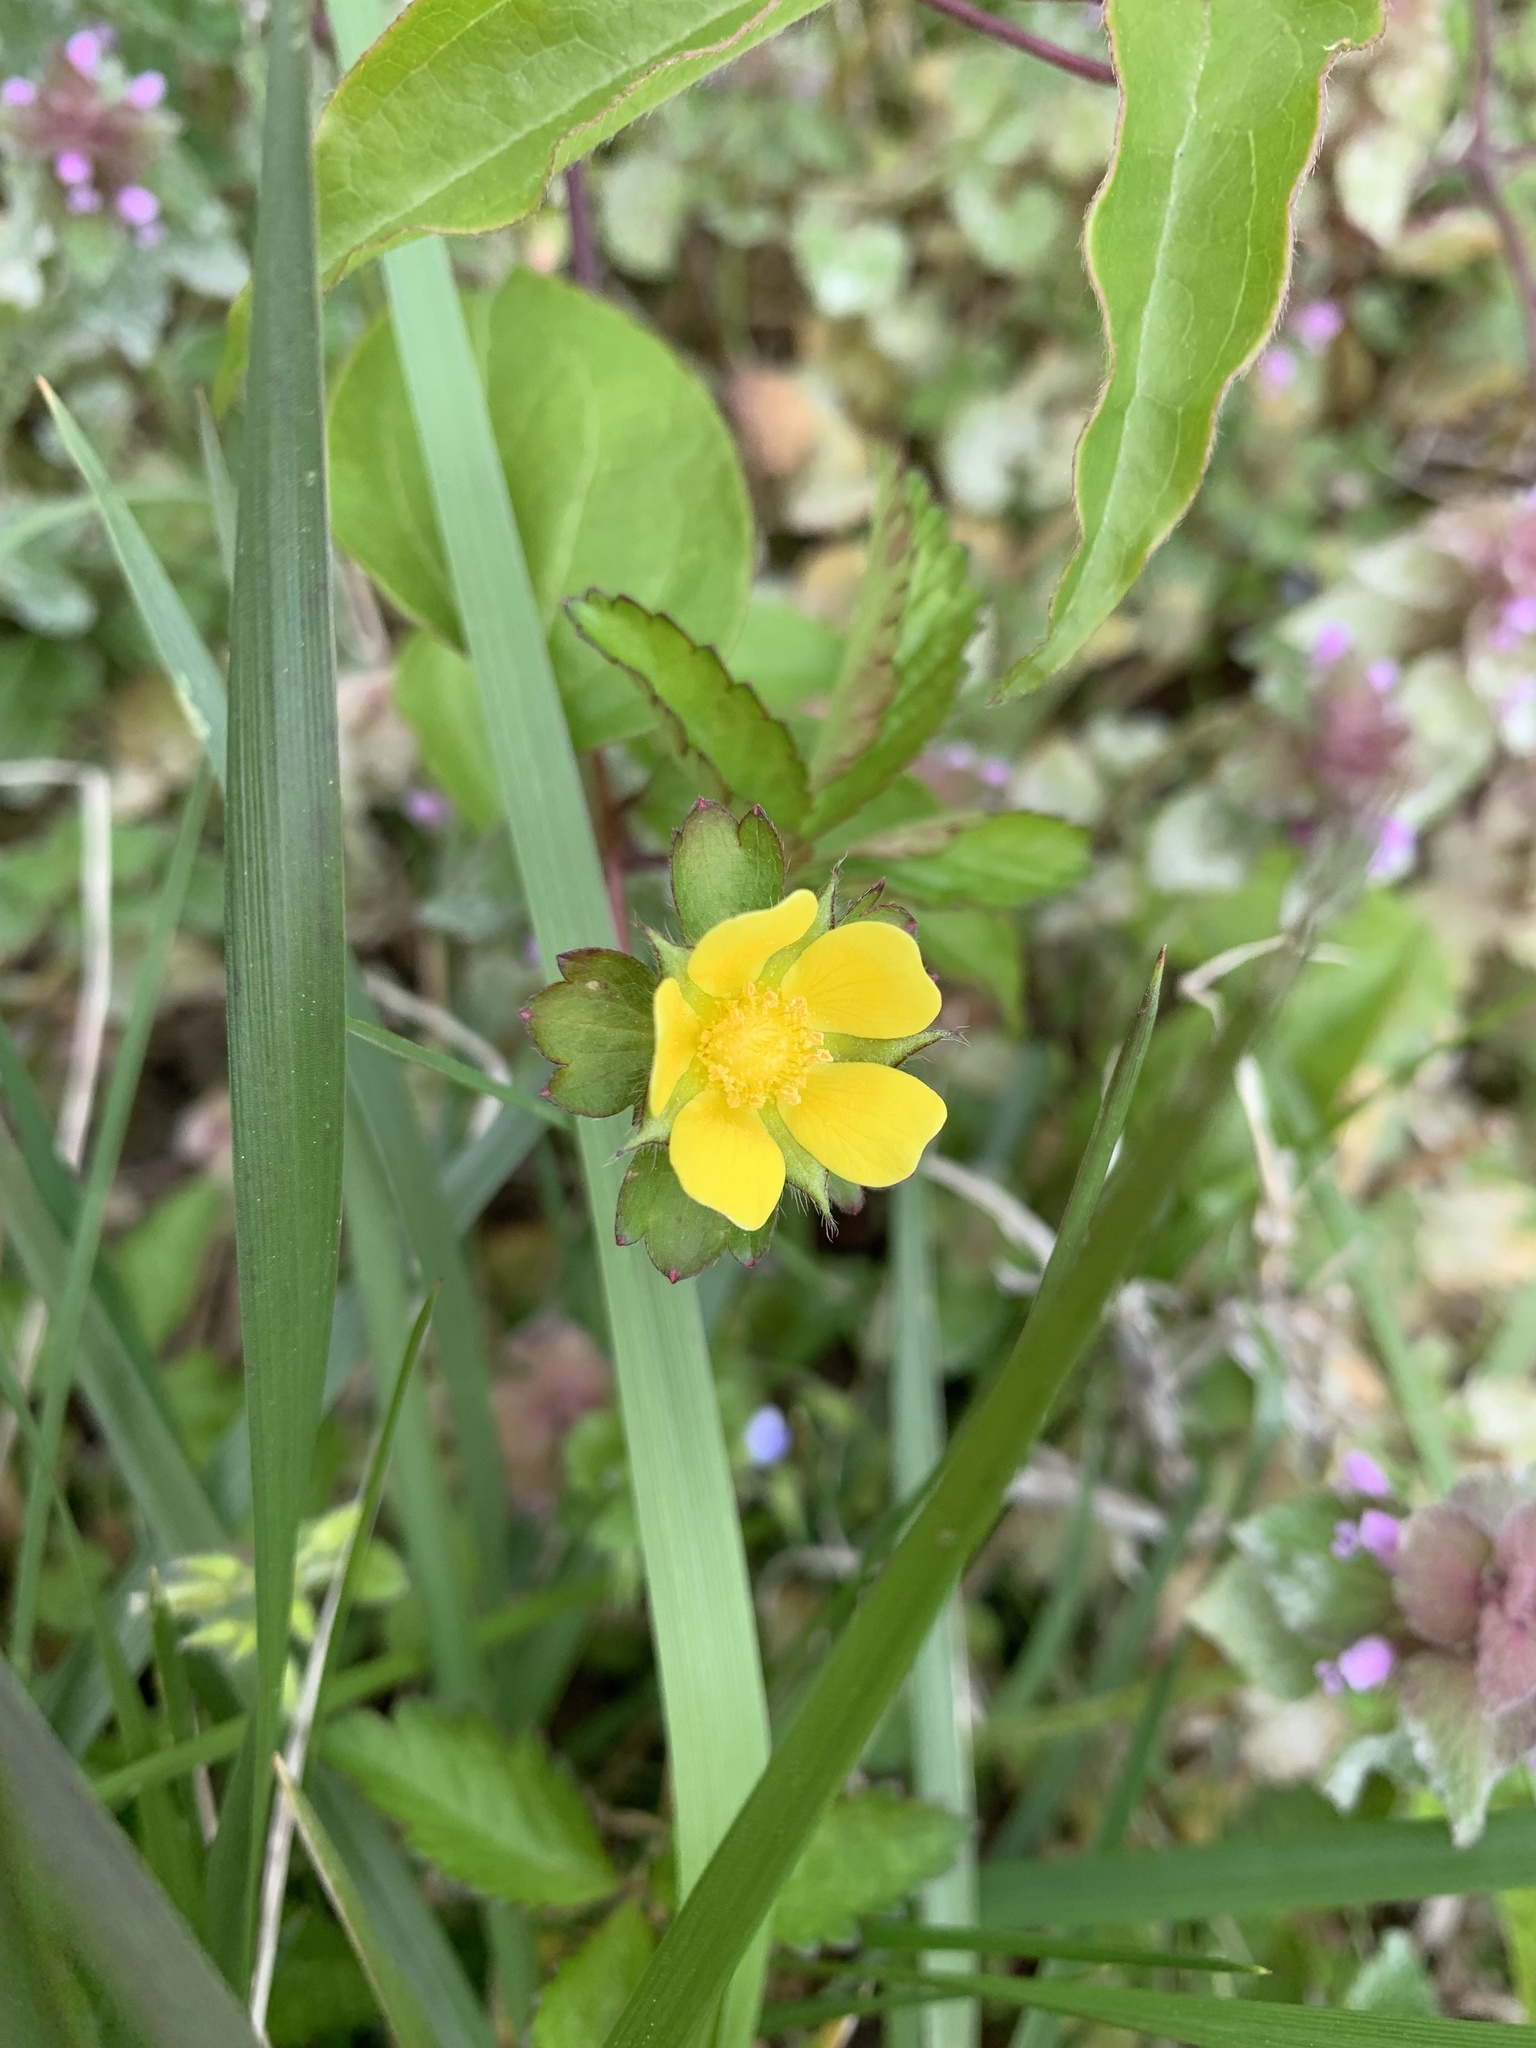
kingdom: Plantae
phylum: Tracheophyta
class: Magnoliopsida
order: Rosales
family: Rosaceae
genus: Potentilla
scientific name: Potentilla indica
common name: Yellow-flowered strawberry
